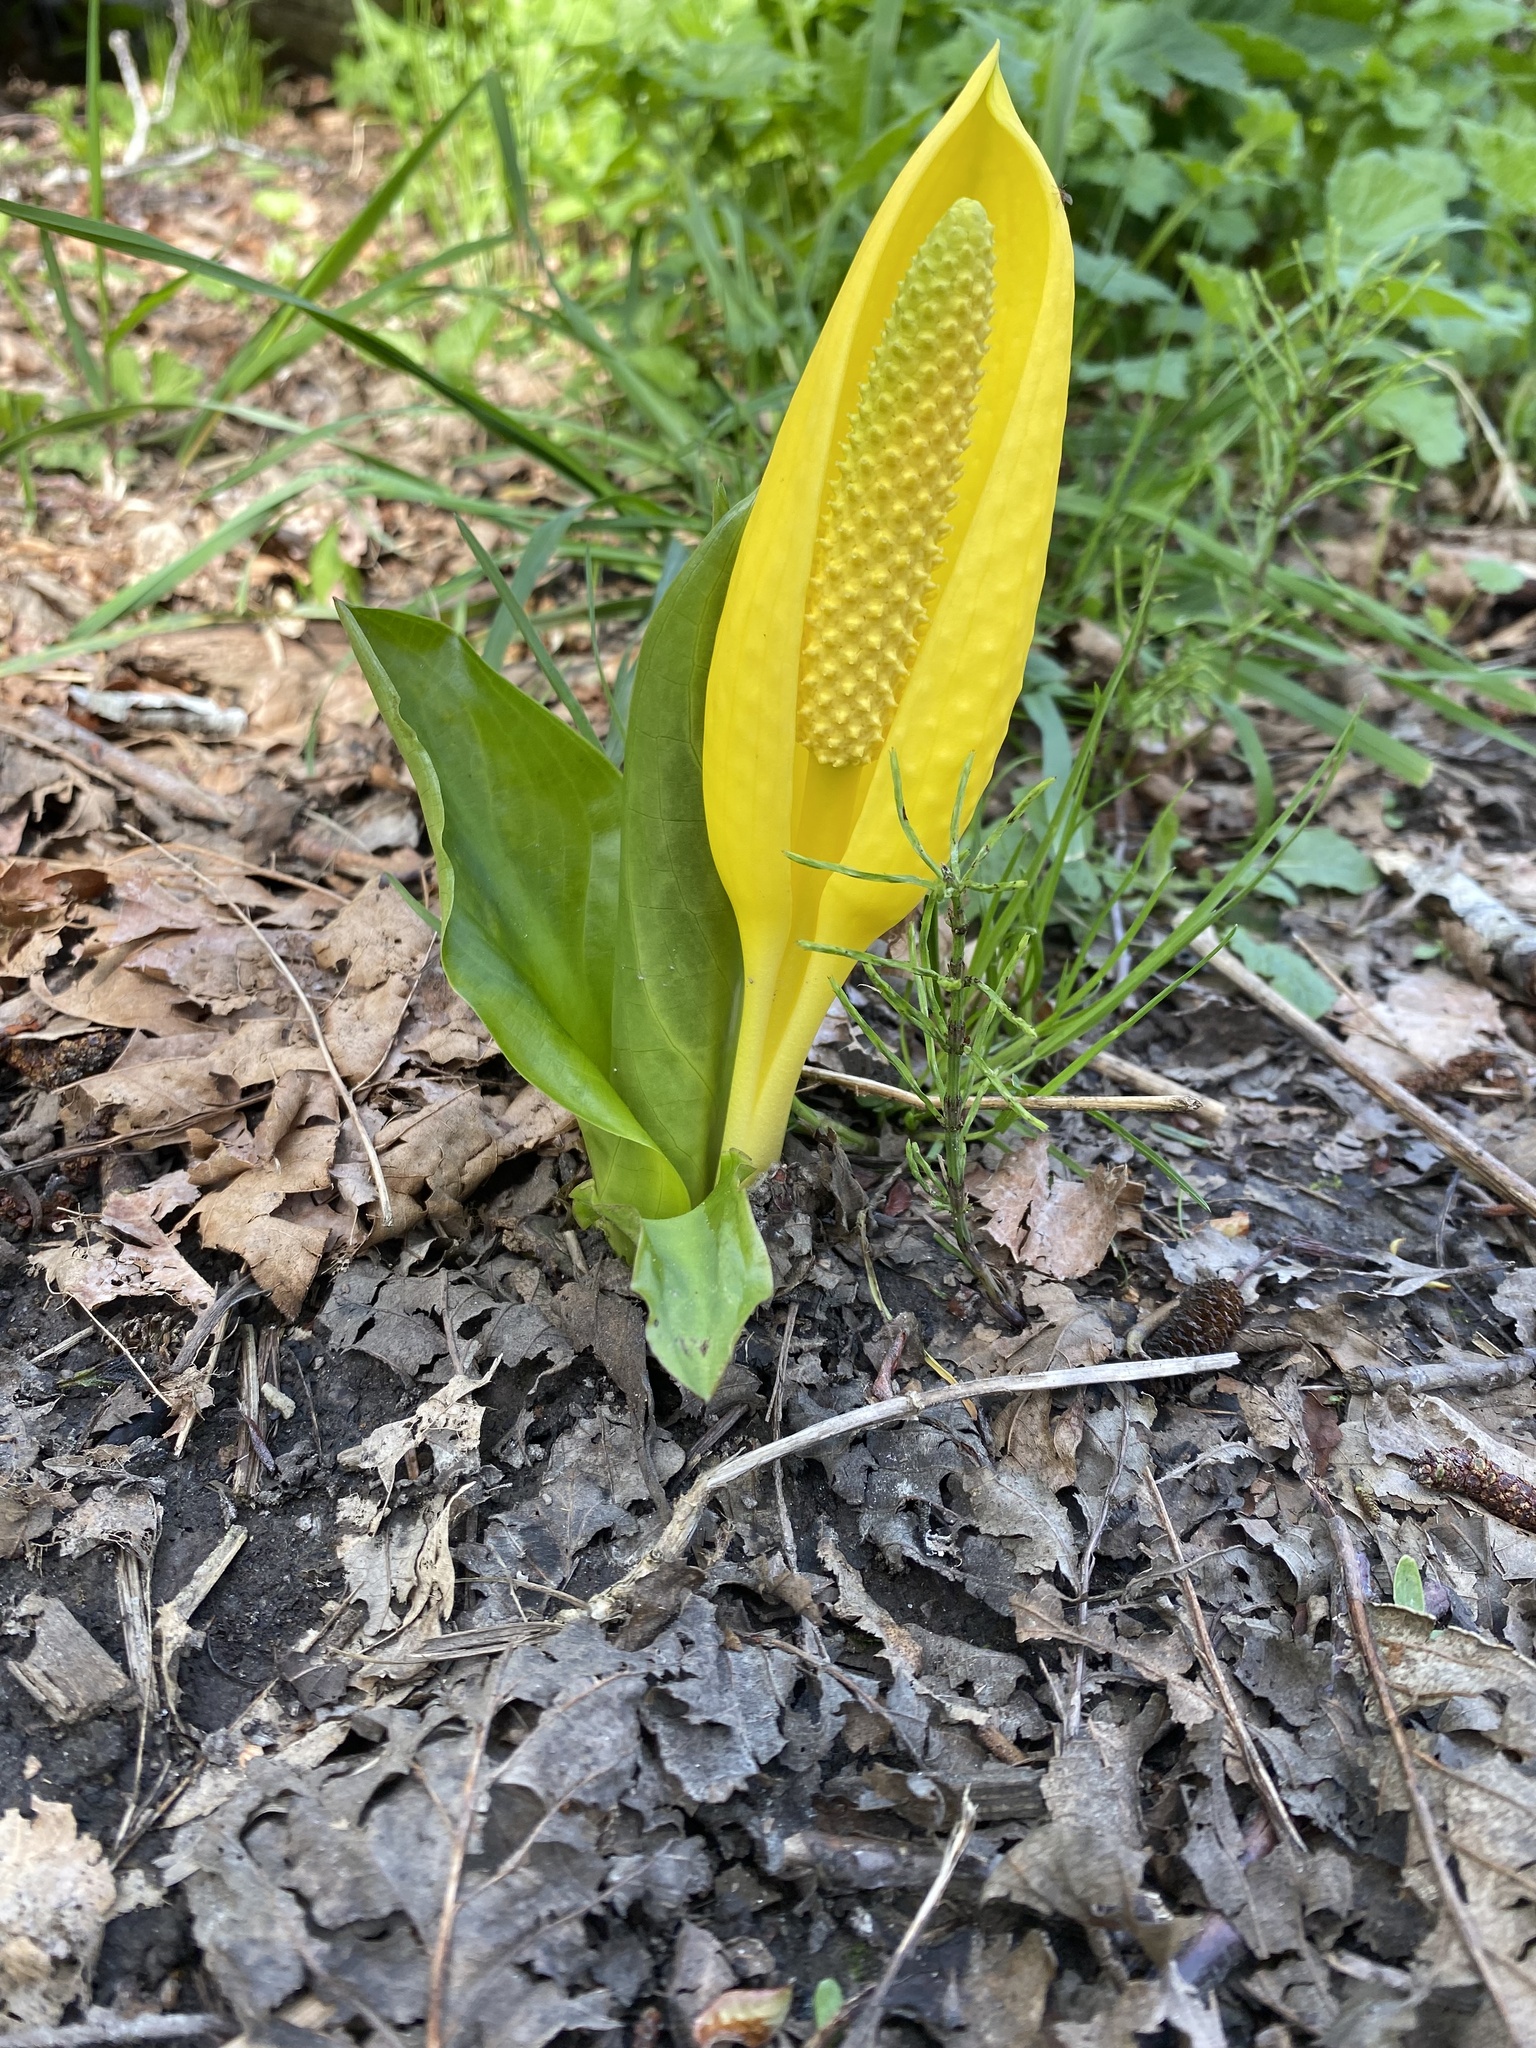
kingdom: Plantae
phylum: Tracheophyta
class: Liliopsida
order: Alismatales
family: Araceae
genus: Lysichiton
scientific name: Lysichiton americanus
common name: American skunk cabbage
